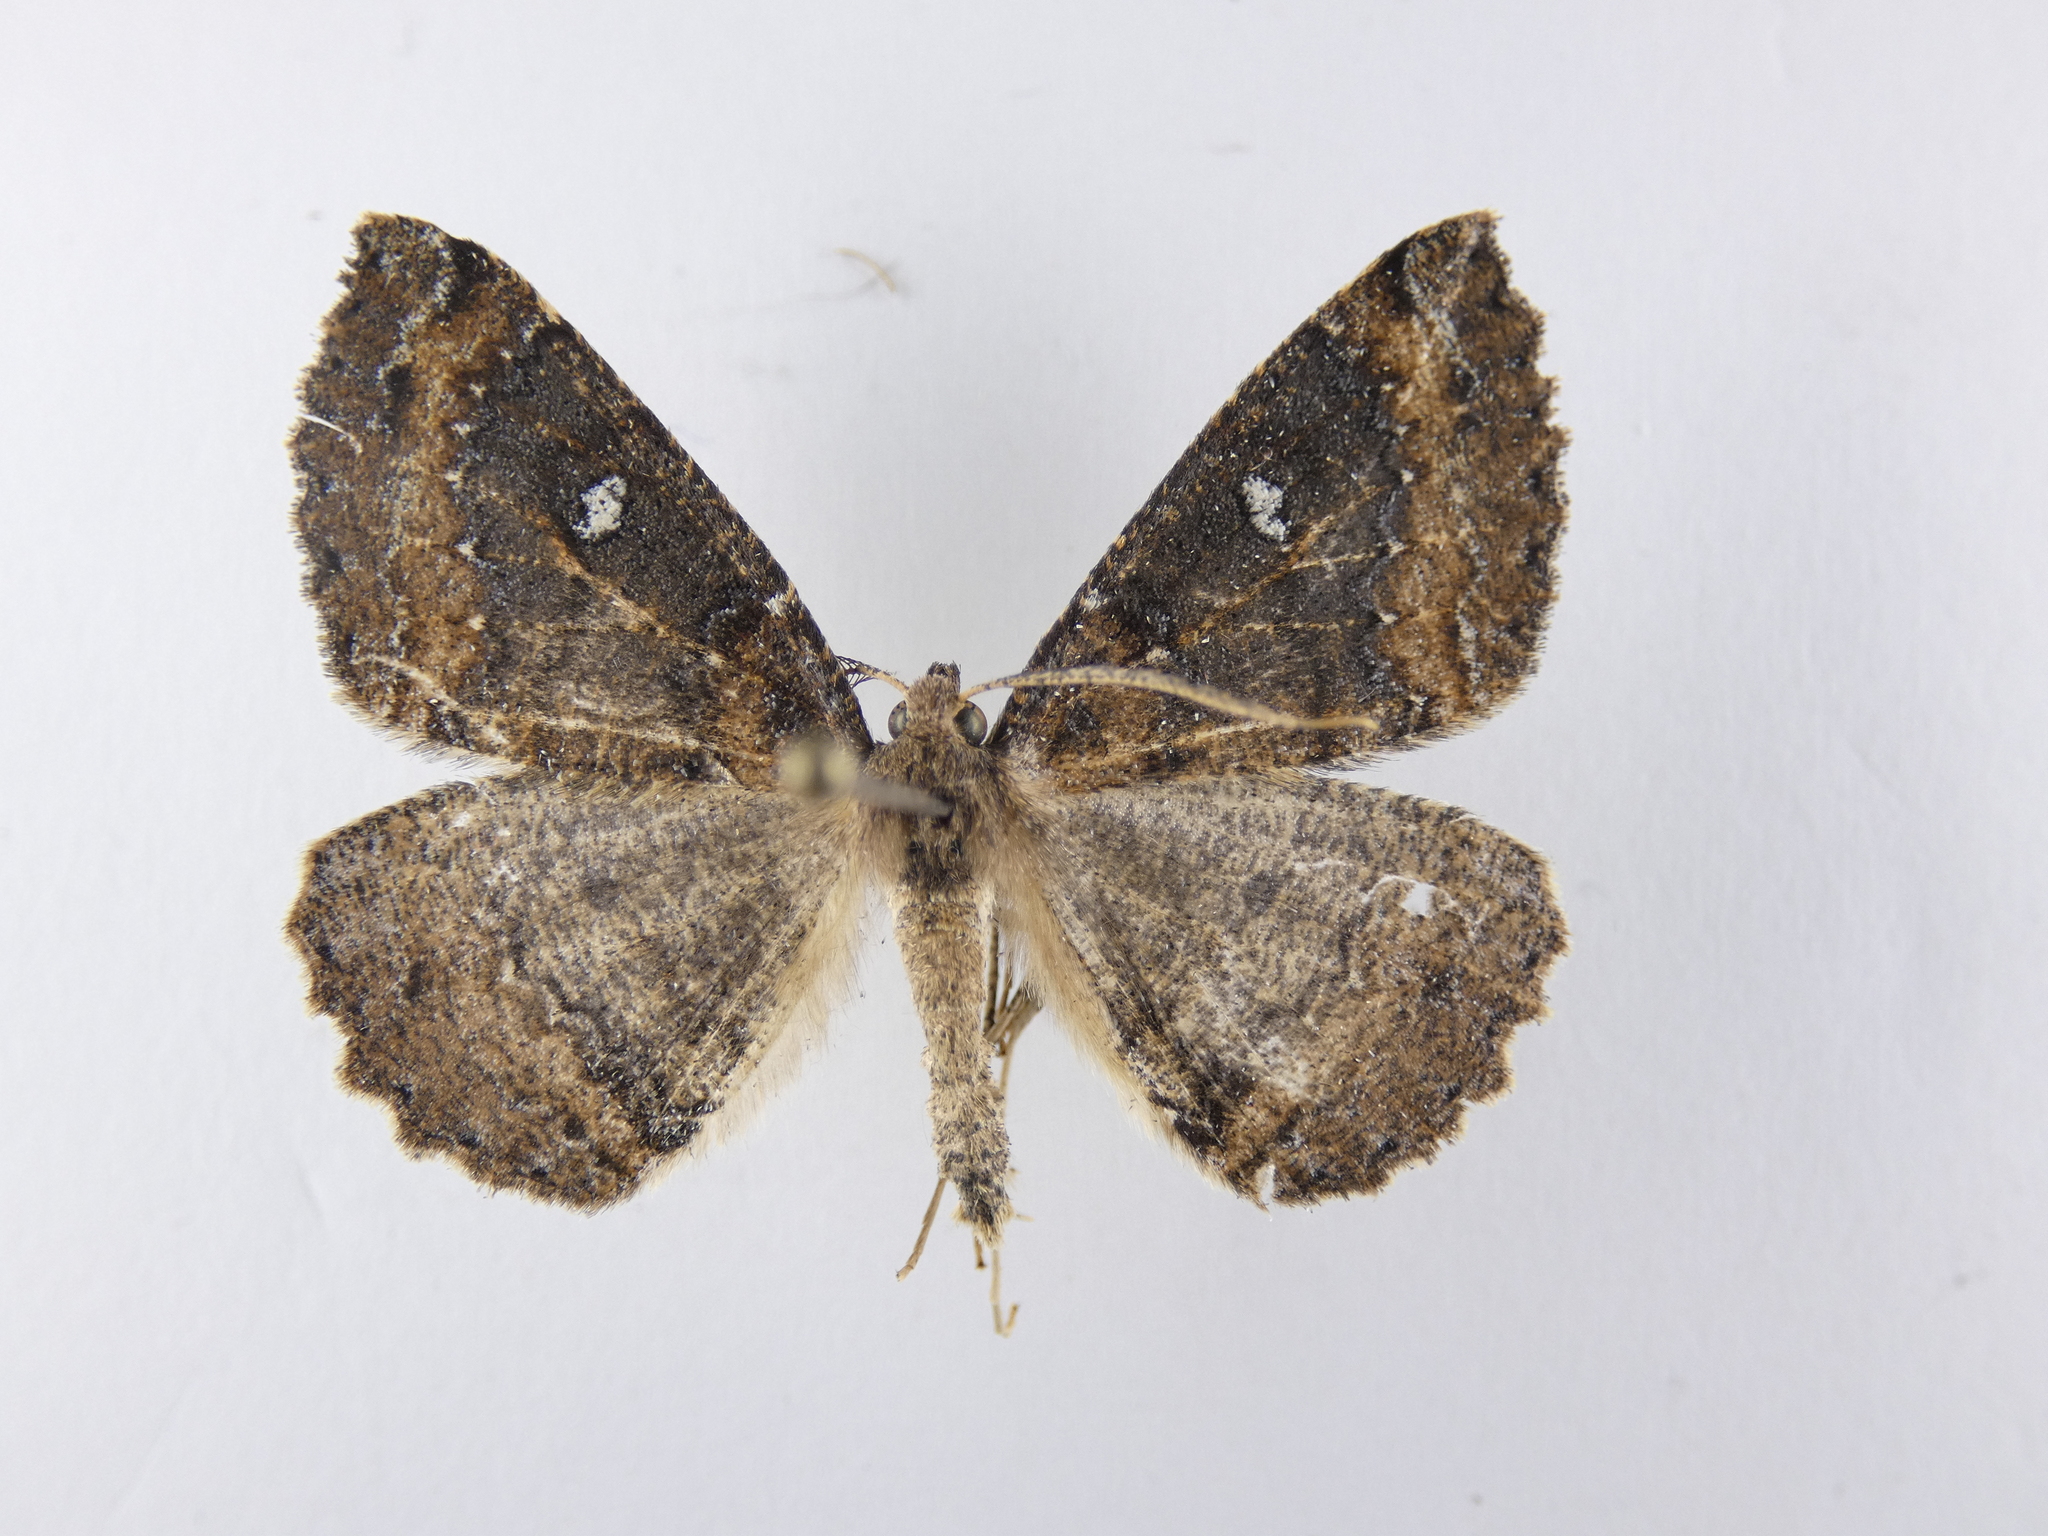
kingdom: Animalia
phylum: Arthropoda
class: Insecta
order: Lepidoptera
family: Geometridae
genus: Cleora
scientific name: Cleora scriptaria
